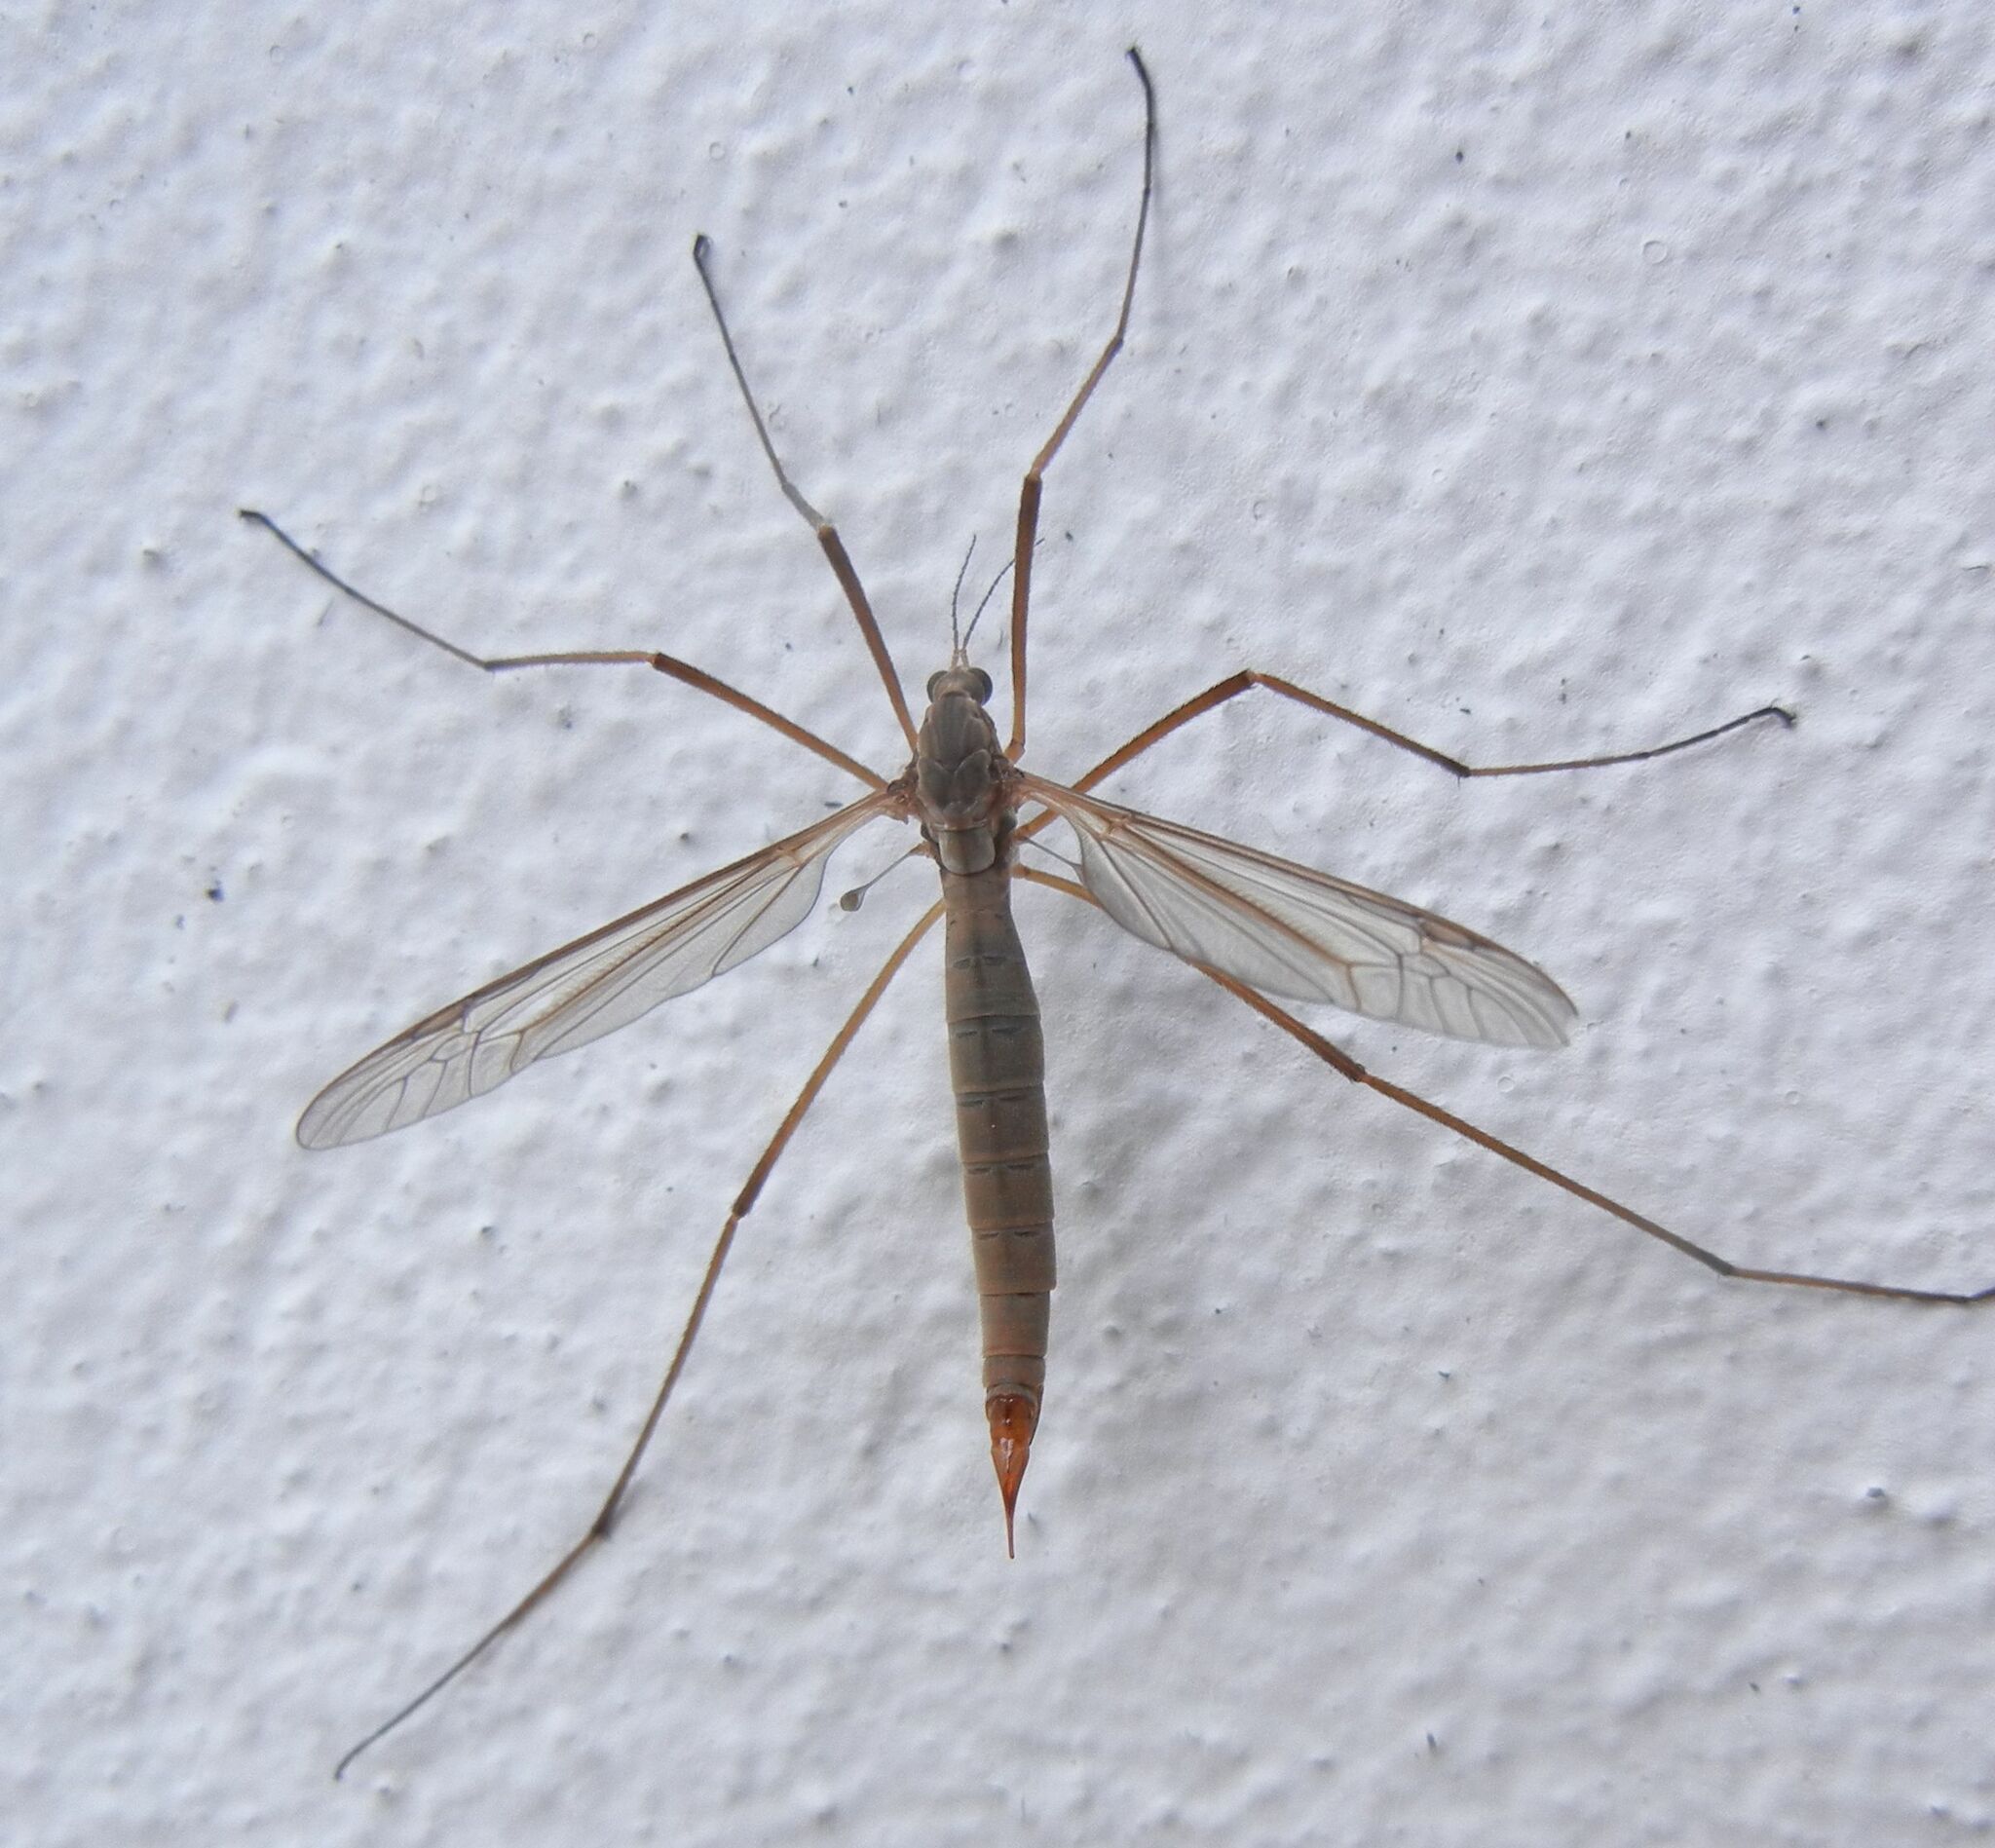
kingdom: Animalia
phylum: Arthropoda
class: Insecta
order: Diptera
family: Tipulidae
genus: Tipula
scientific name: Tipula paludosa
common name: European cranefly
